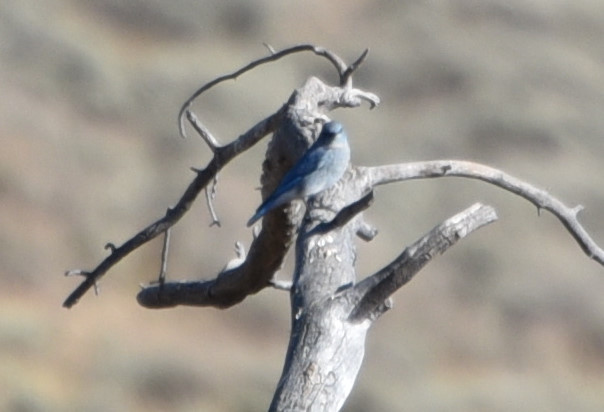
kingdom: Animalia
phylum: Chordata
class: Aves
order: Passeriformes
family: Turdidae
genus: Sialia
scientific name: Sialia currucoides
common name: Mountain bluebird
